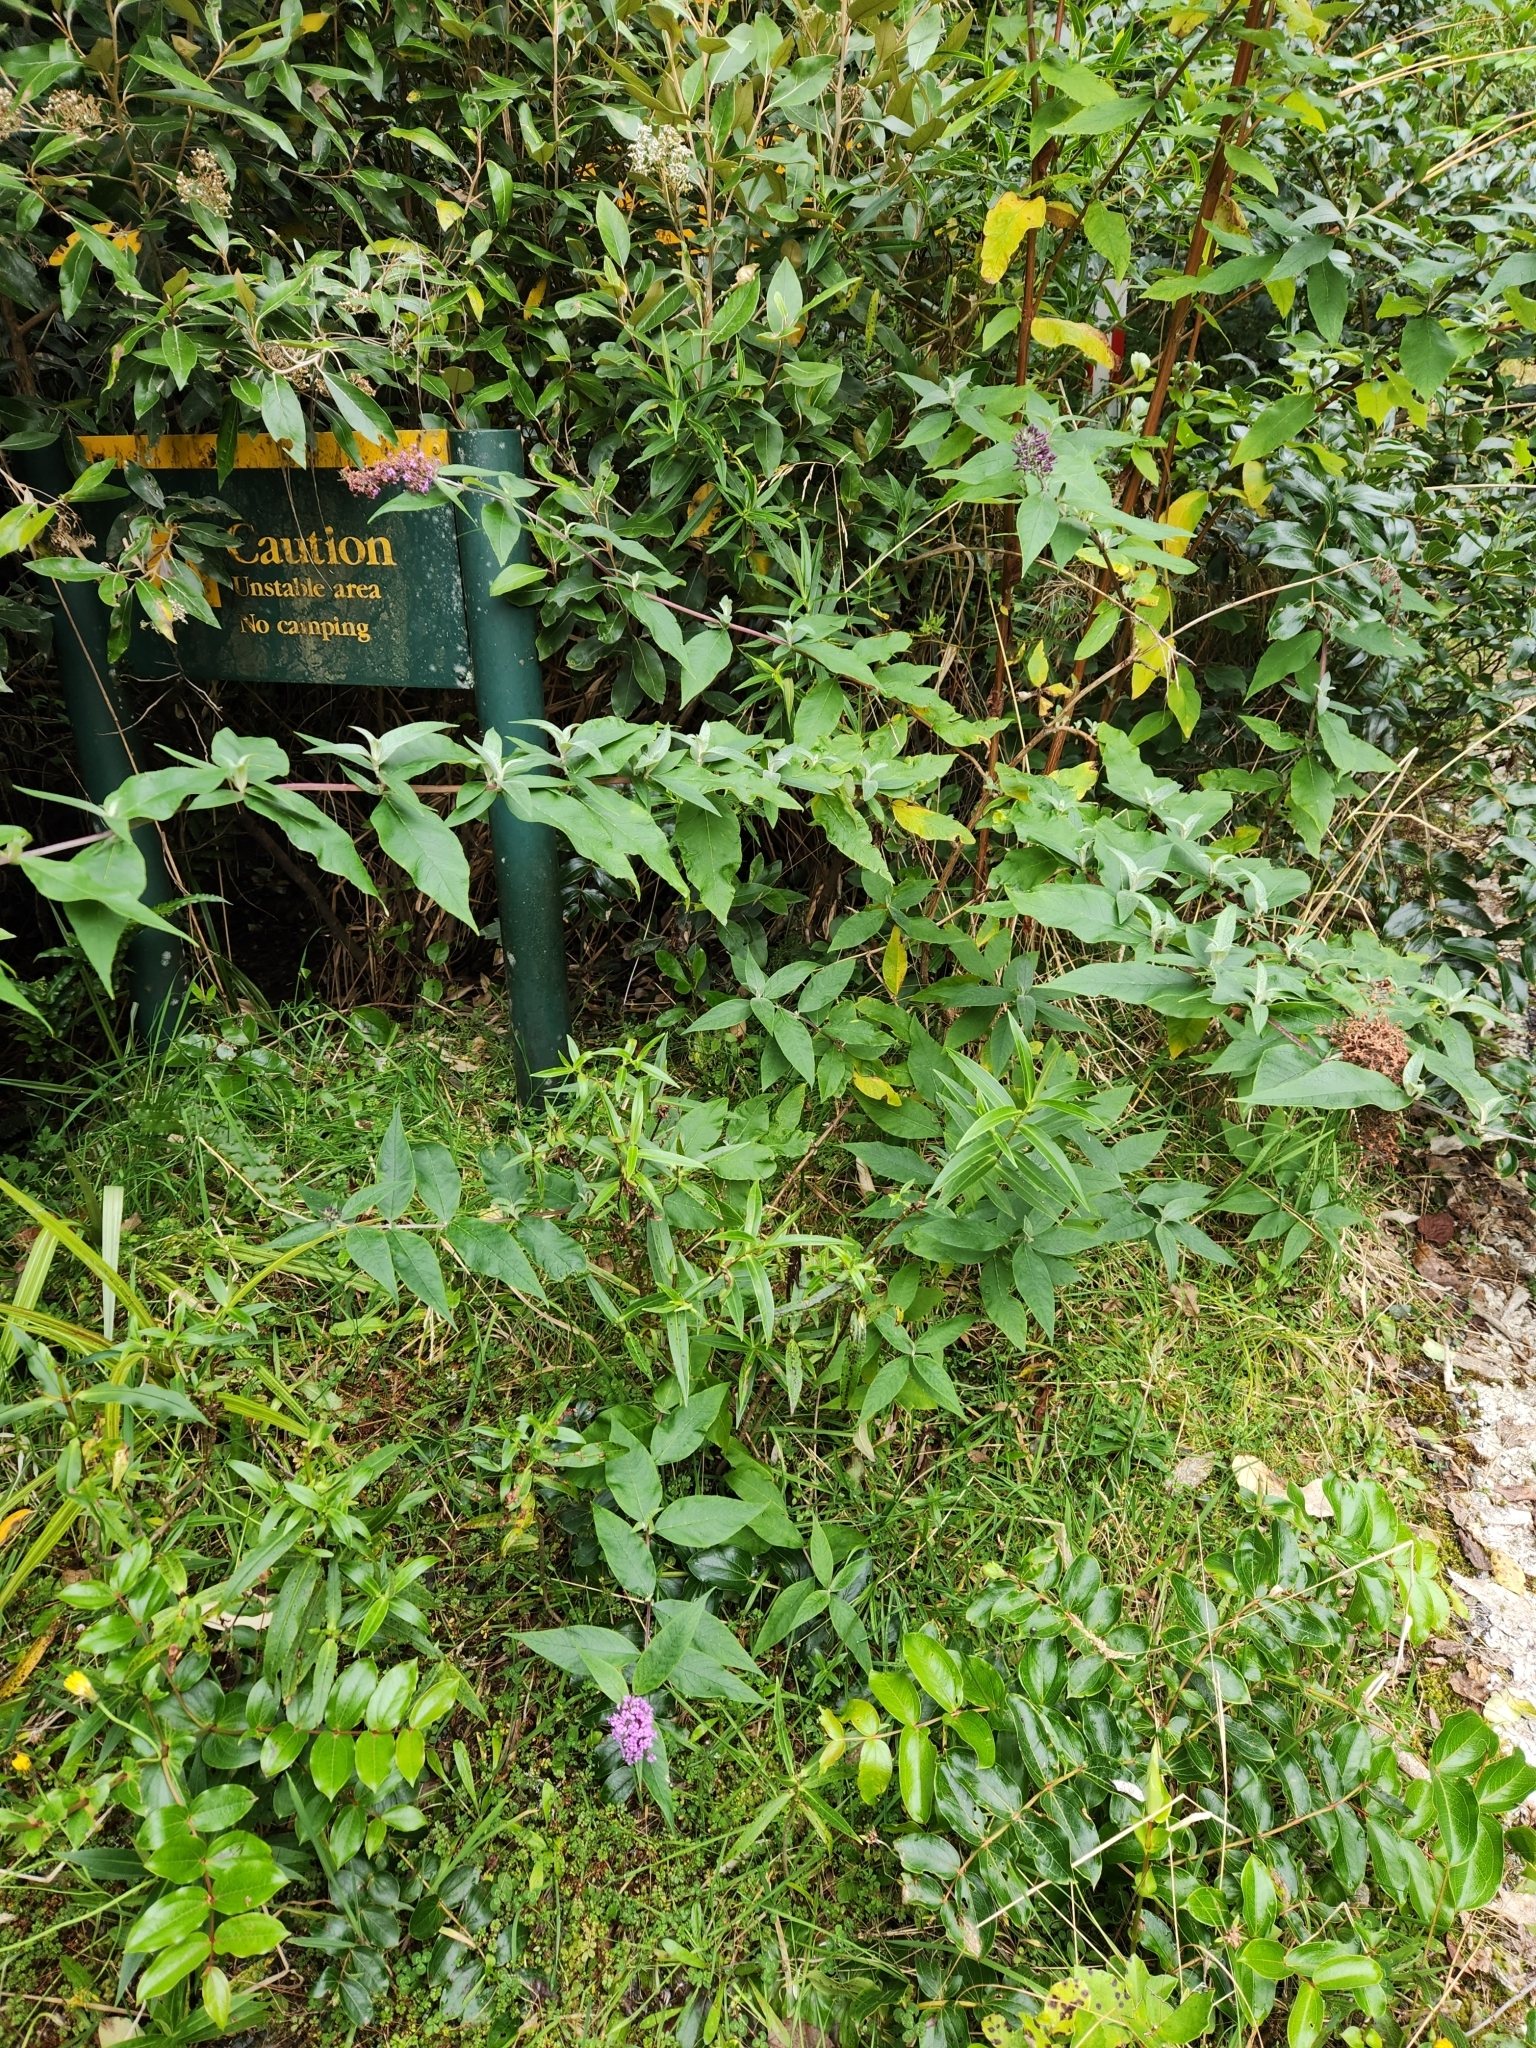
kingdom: Plantae
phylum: Tracheophyta
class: Magnoliopsida
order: Lamiales
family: Scrophulariaceae
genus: Buddleja
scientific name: Buddleja davidii
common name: Butterfly-bush
